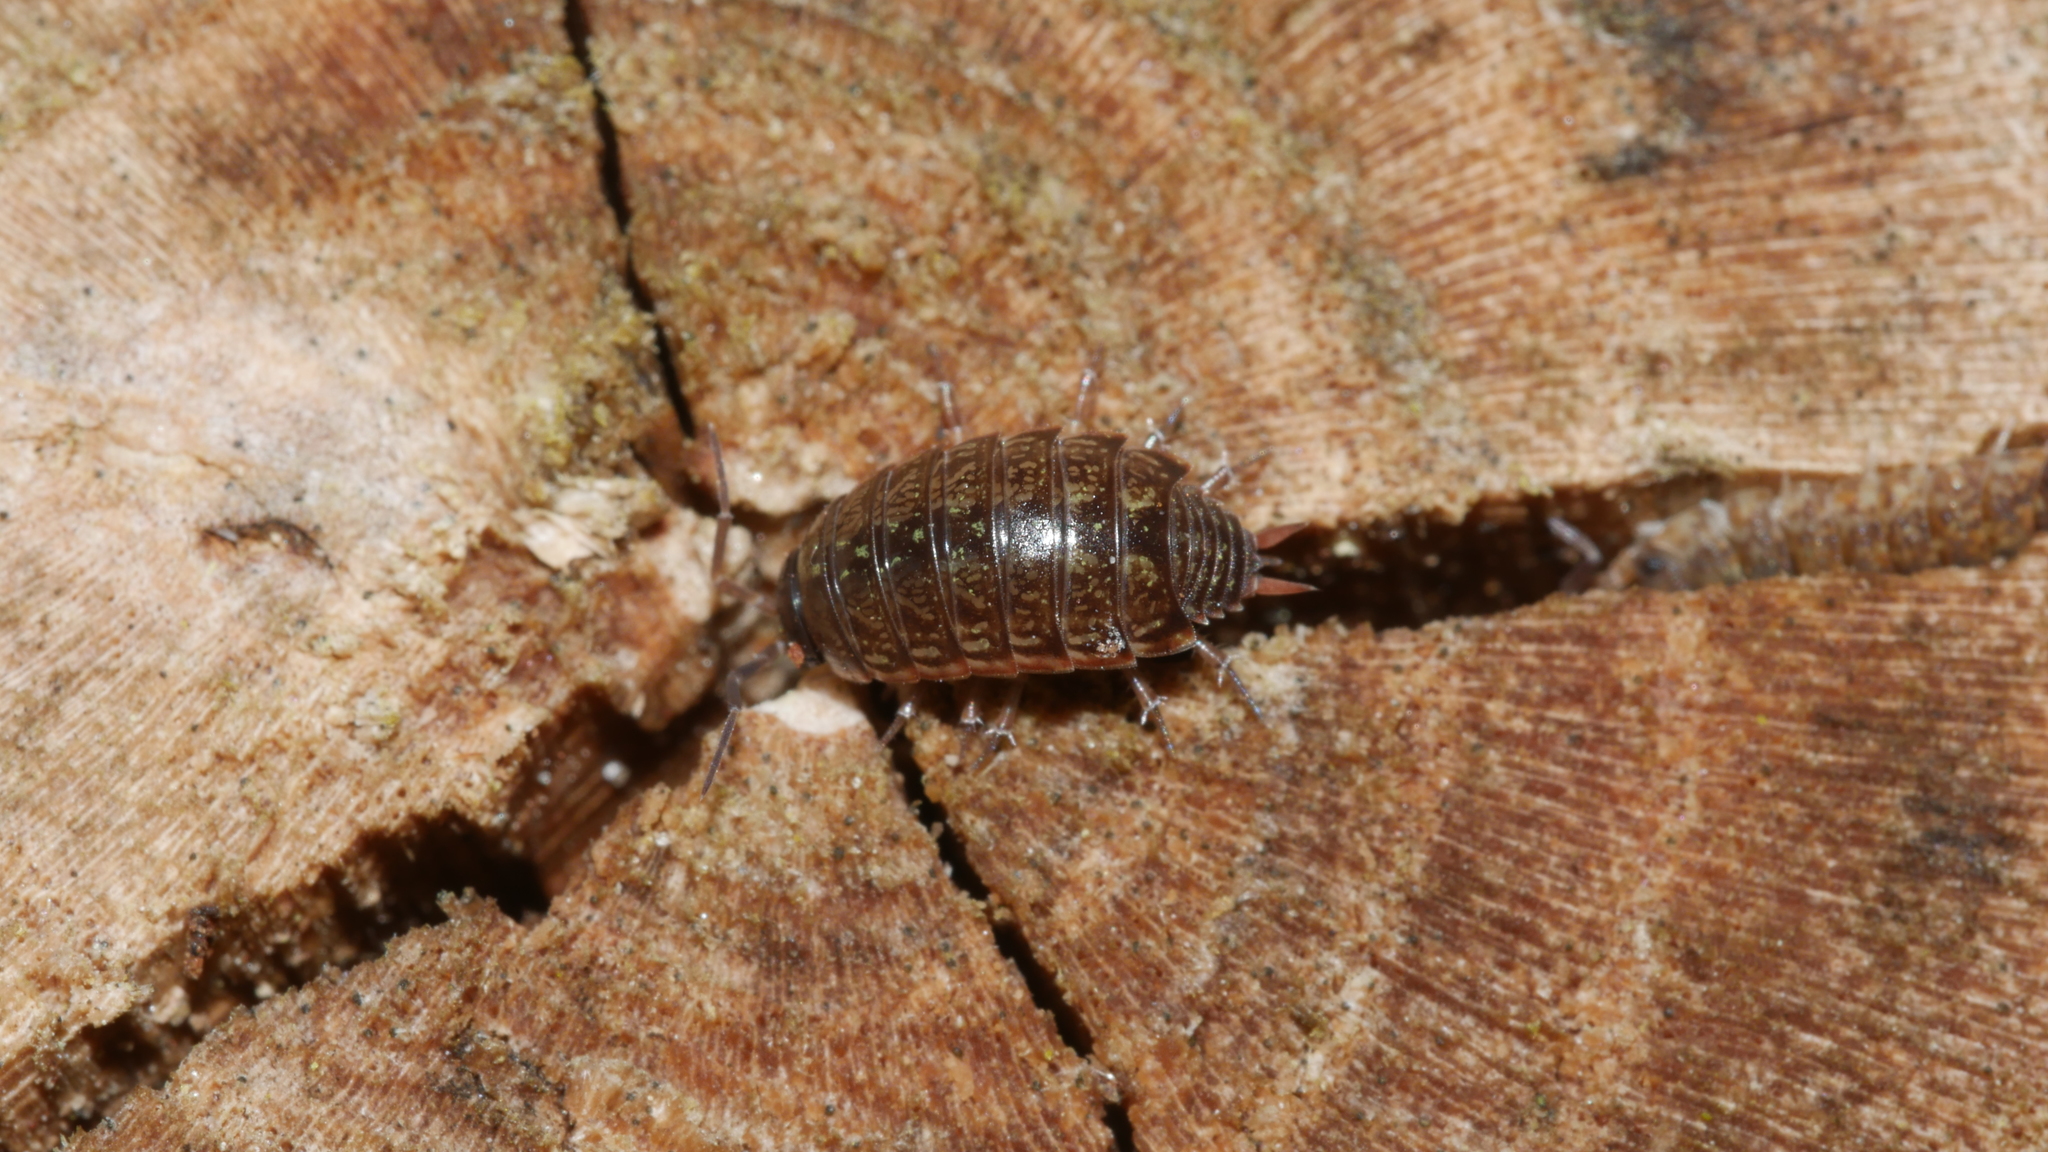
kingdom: Animalia
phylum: Arthropoda
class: Malacostraca
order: Isopoda
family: Philosciidae
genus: Philoscia
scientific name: Philoscia muscorum
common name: Common striped woodlouse
